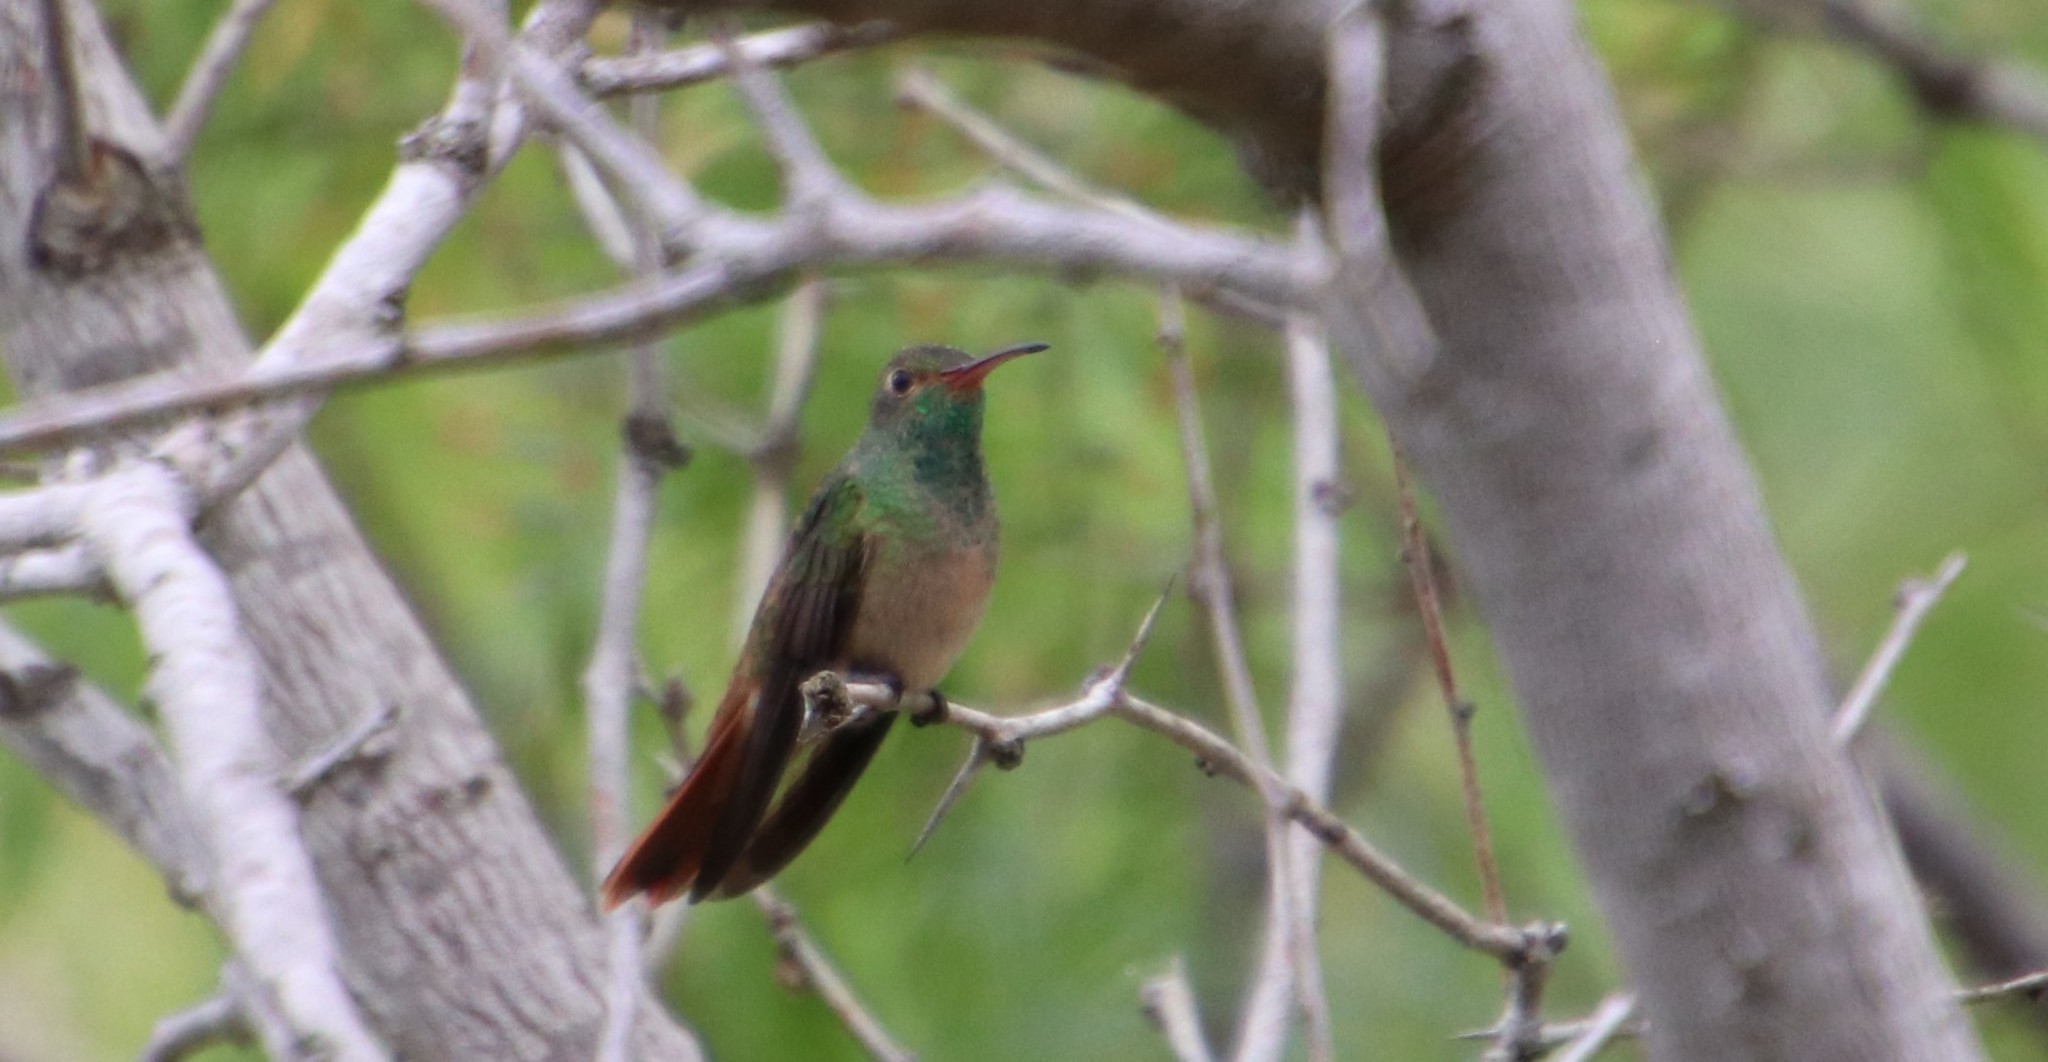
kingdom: Animalia
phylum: Chordata
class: Aves
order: Apodiformes
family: Trochilidae
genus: Amazilia
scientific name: Amazilia yucatanensis
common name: Buff-bellied hummingbird
